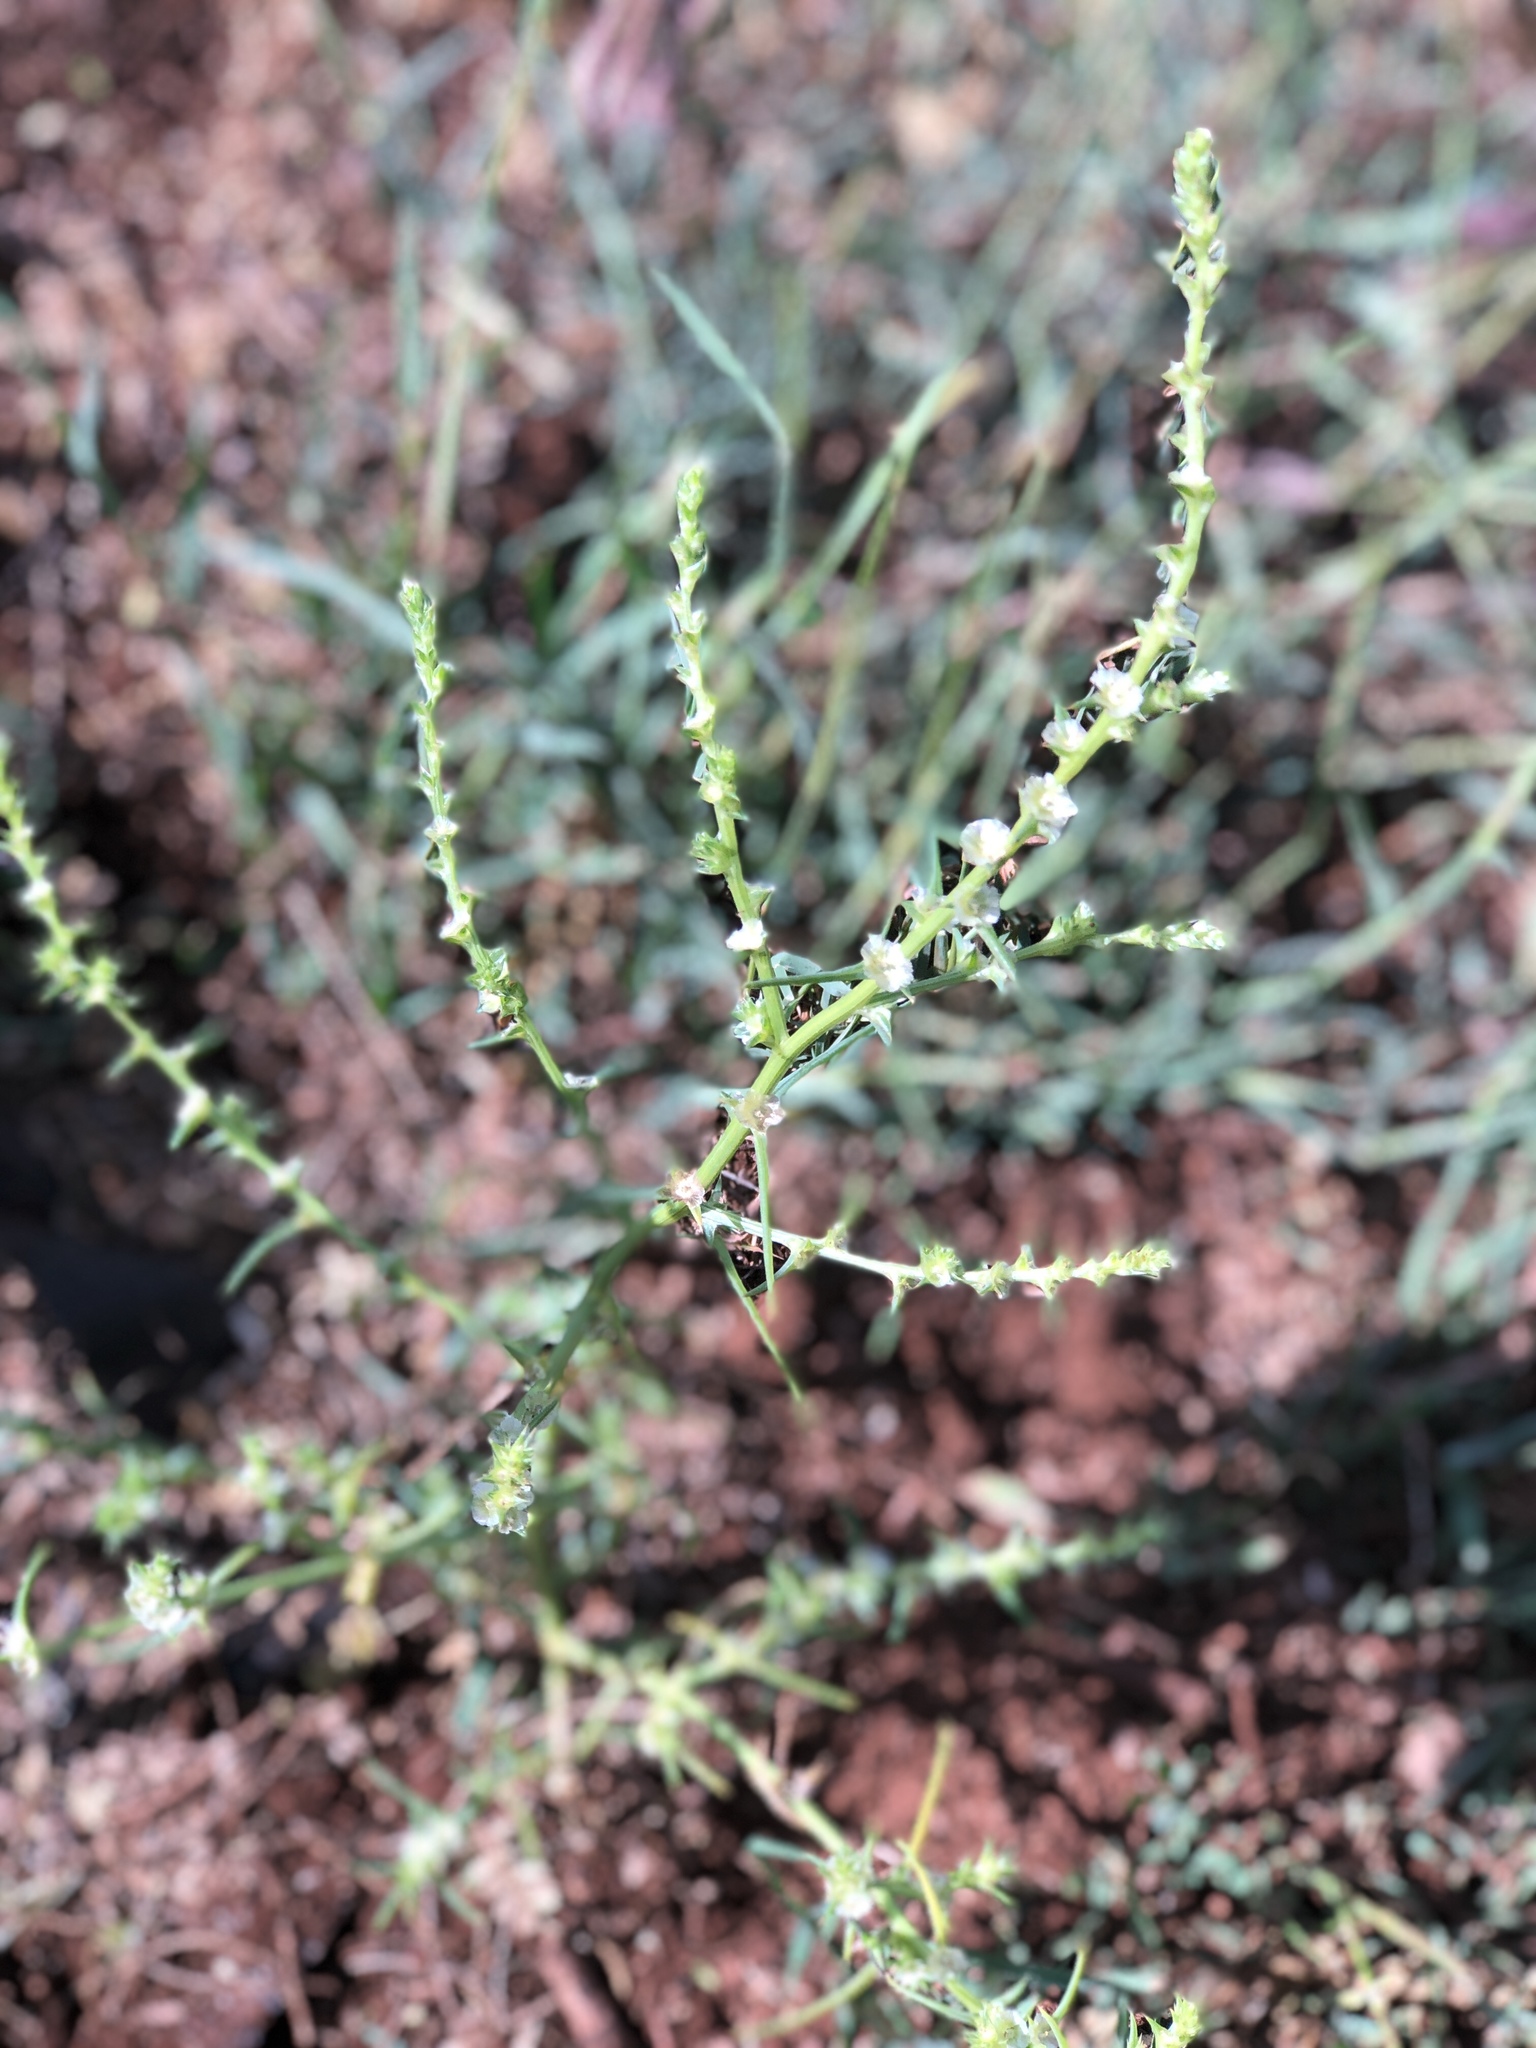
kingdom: Plantae
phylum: Tracheophyta
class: Magnoliopsida
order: Caryophyllales
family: Amaranthaceae
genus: Salsola
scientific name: Salsola tragus
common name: Prickly russian thistle
